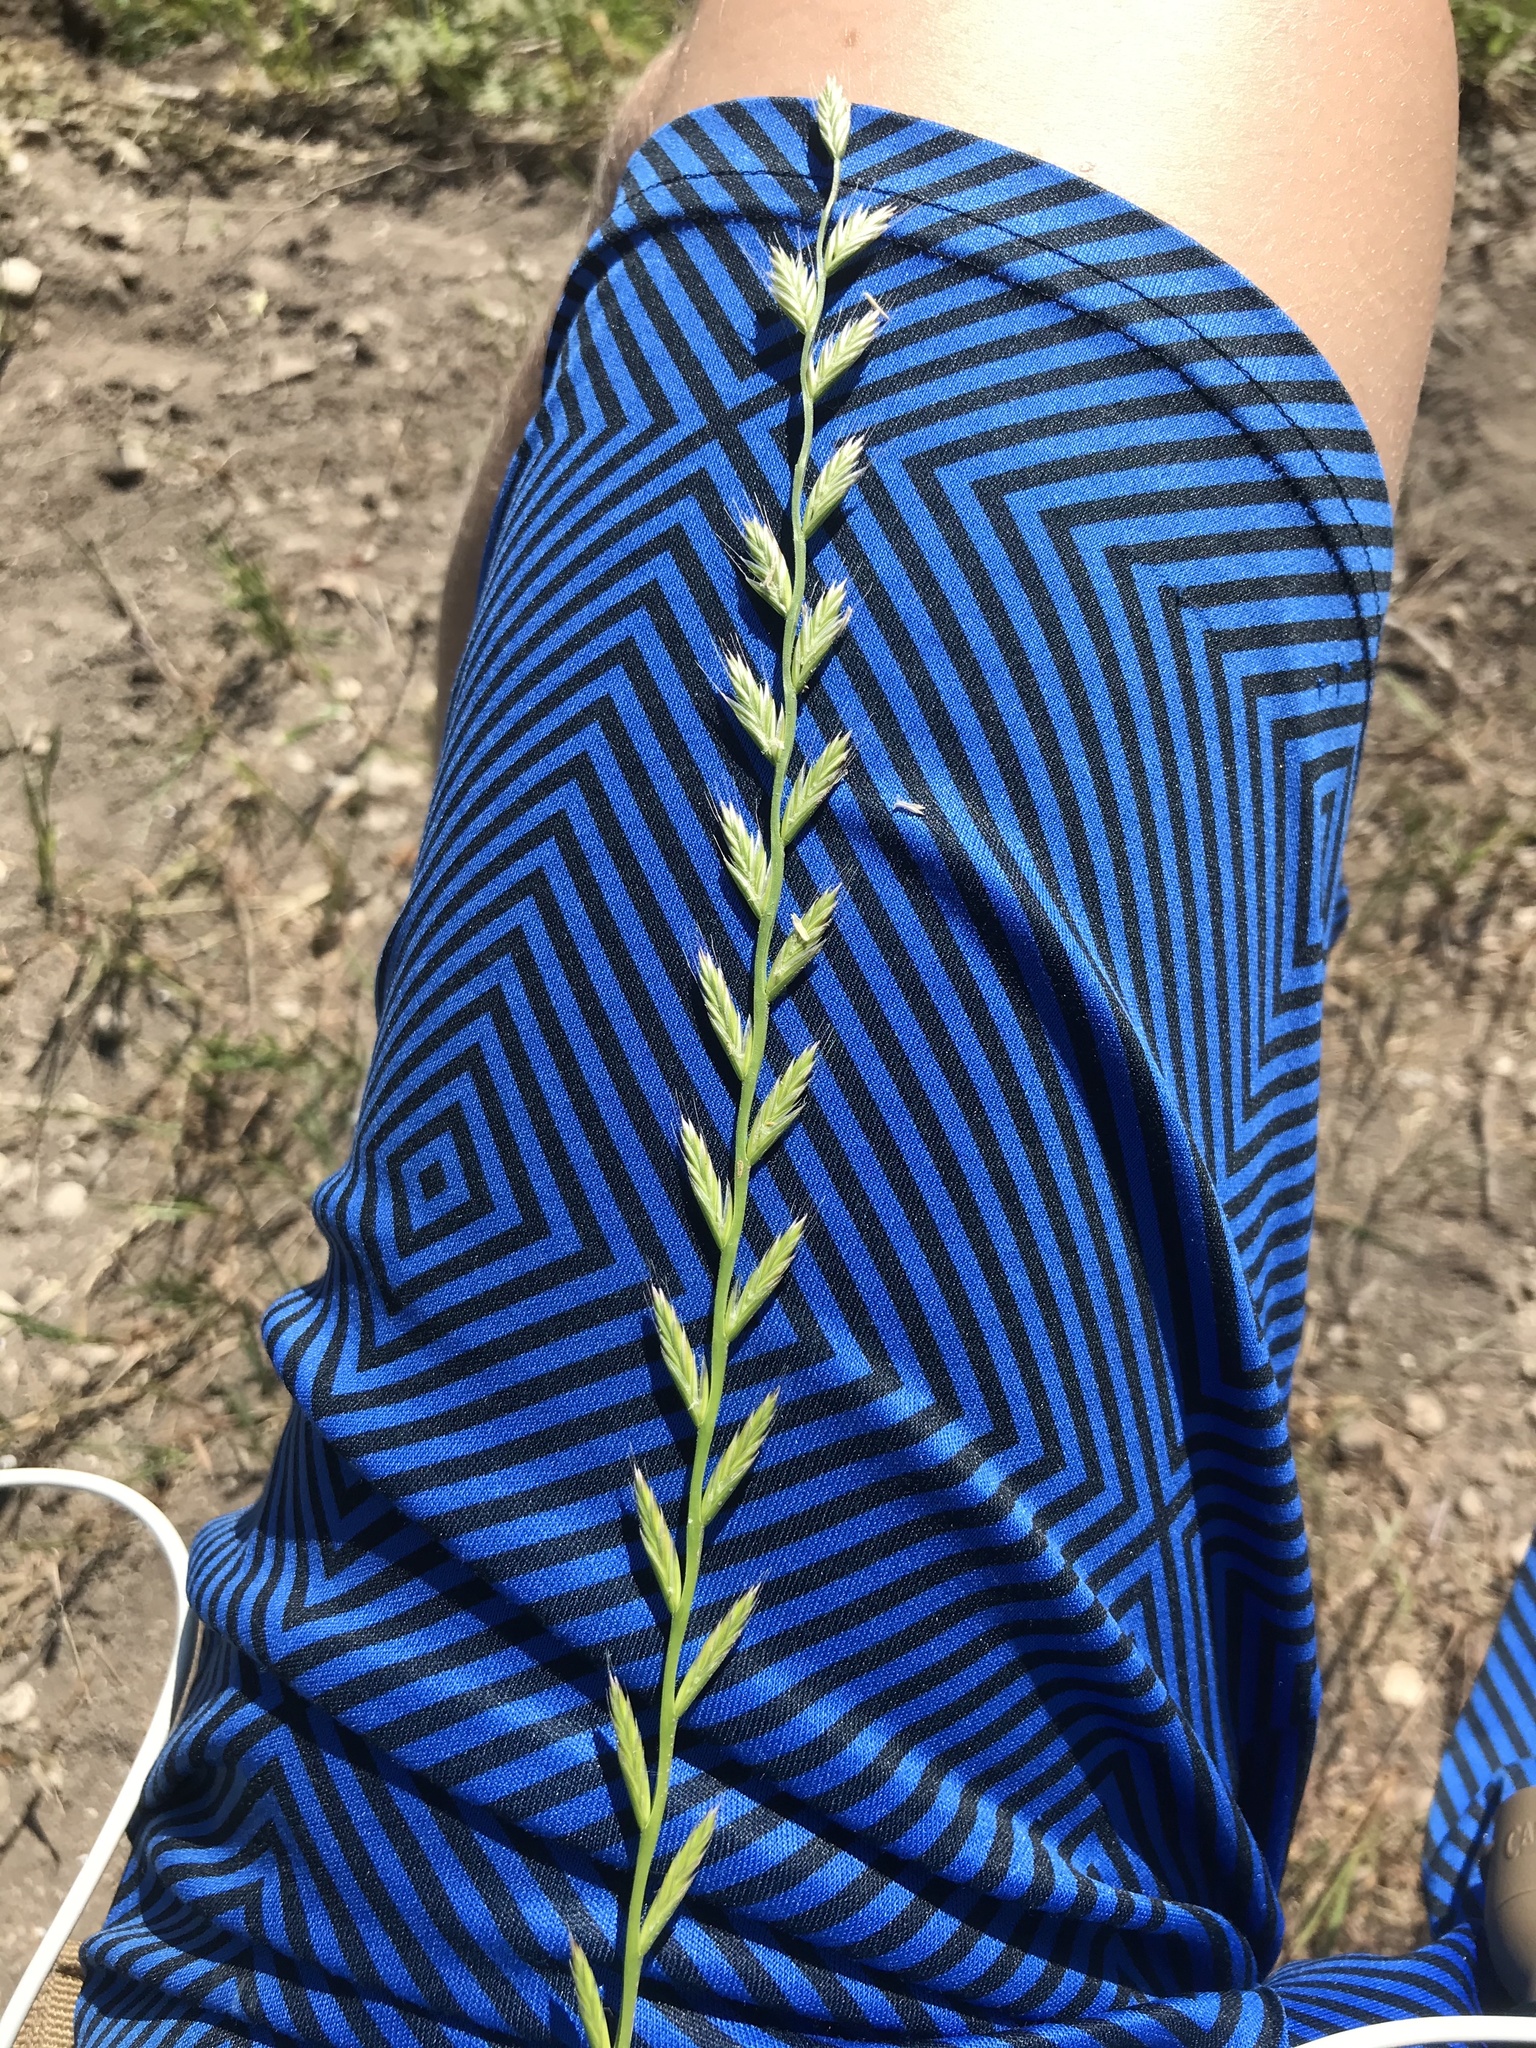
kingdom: Plantae
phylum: Tracheophyta
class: Liliopsida
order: Poales
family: Poaceae
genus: Lolium
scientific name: Lolium perenne
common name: Perennial ryegrass
